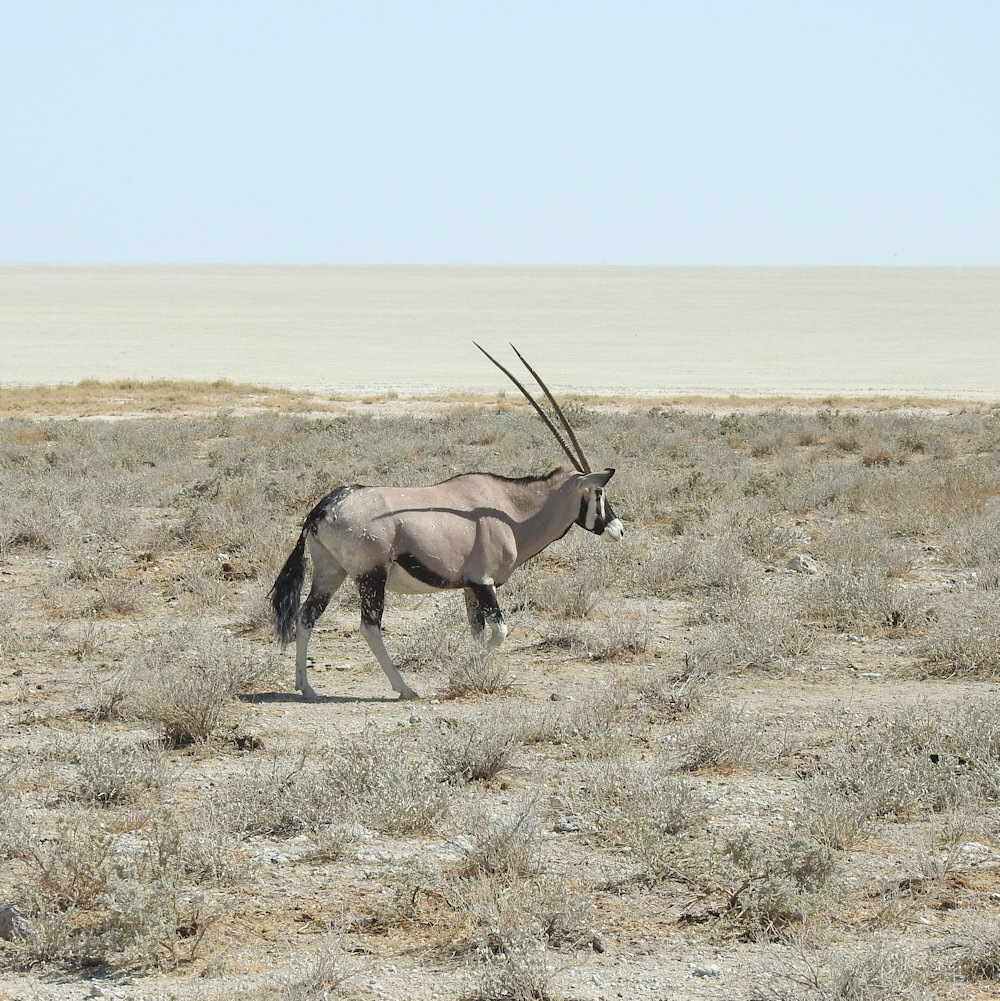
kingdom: Animalia
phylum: Chordata
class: Mammalia
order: Artiodactyla
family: Bovidae
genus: Oryx
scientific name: Oryx gazella
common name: Gemsbok
